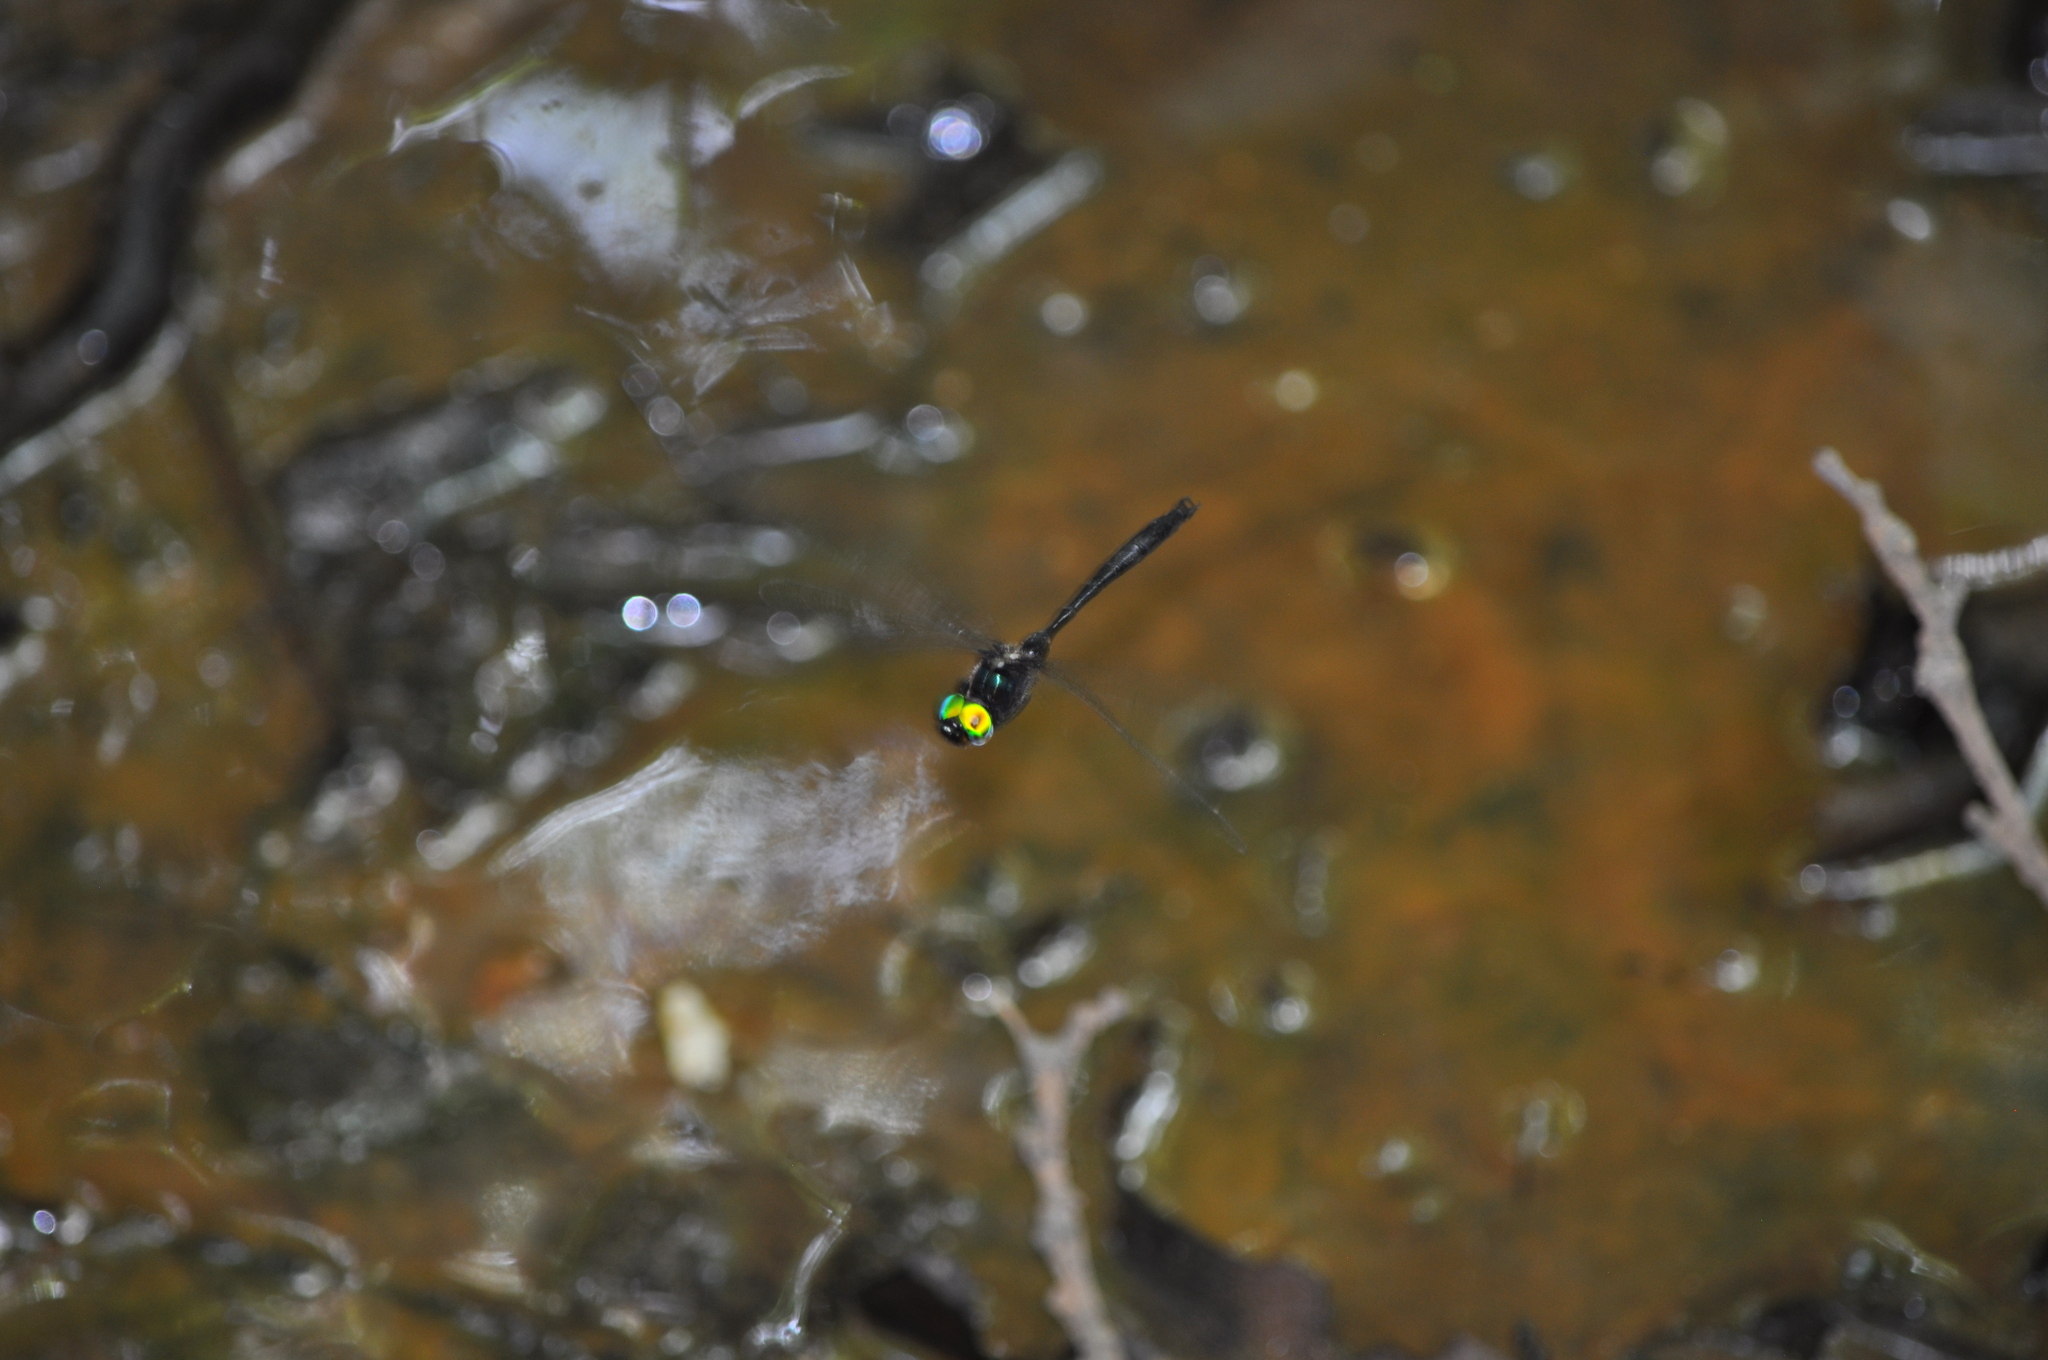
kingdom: Animalia
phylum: Arthropoda
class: Insecta
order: Odonata
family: Corduliidae
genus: Somatochlora
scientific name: Somatochlora tenebrosa
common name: Clamp-tipped emerald
